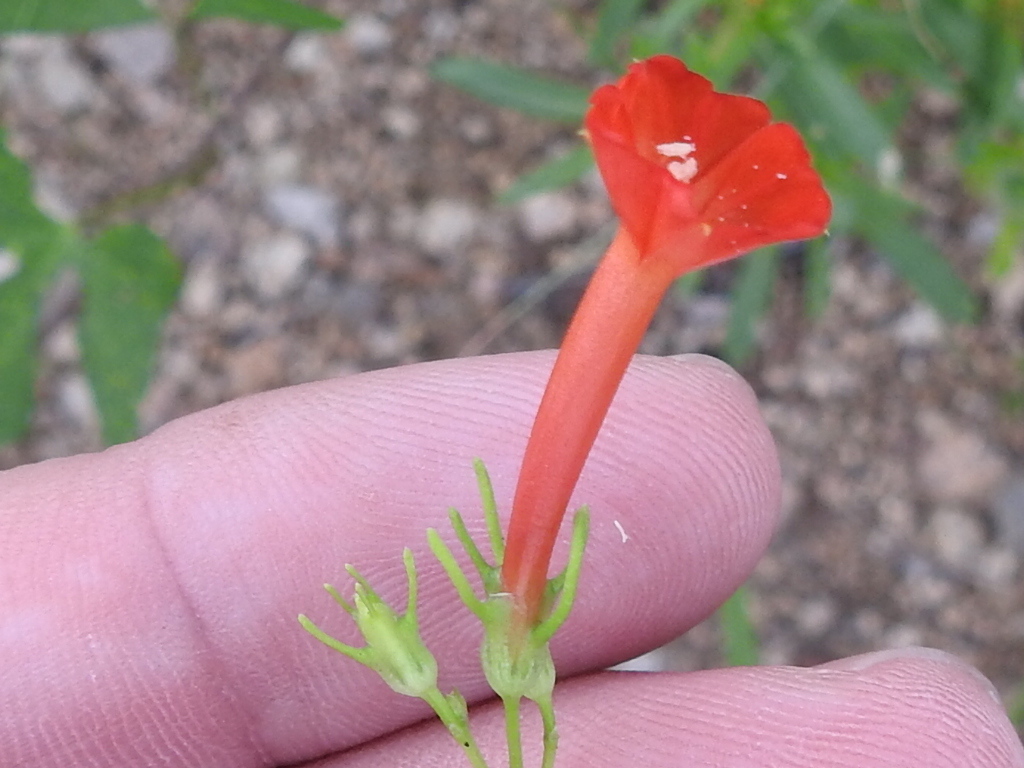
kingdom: Plantae
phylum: Tracheophyta
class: Magnoliopsida
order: Solanales
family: Convolvulaceae
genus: Ipomoea
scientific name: Ipomoea cristulata
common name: Trans-pecos morning-glory
